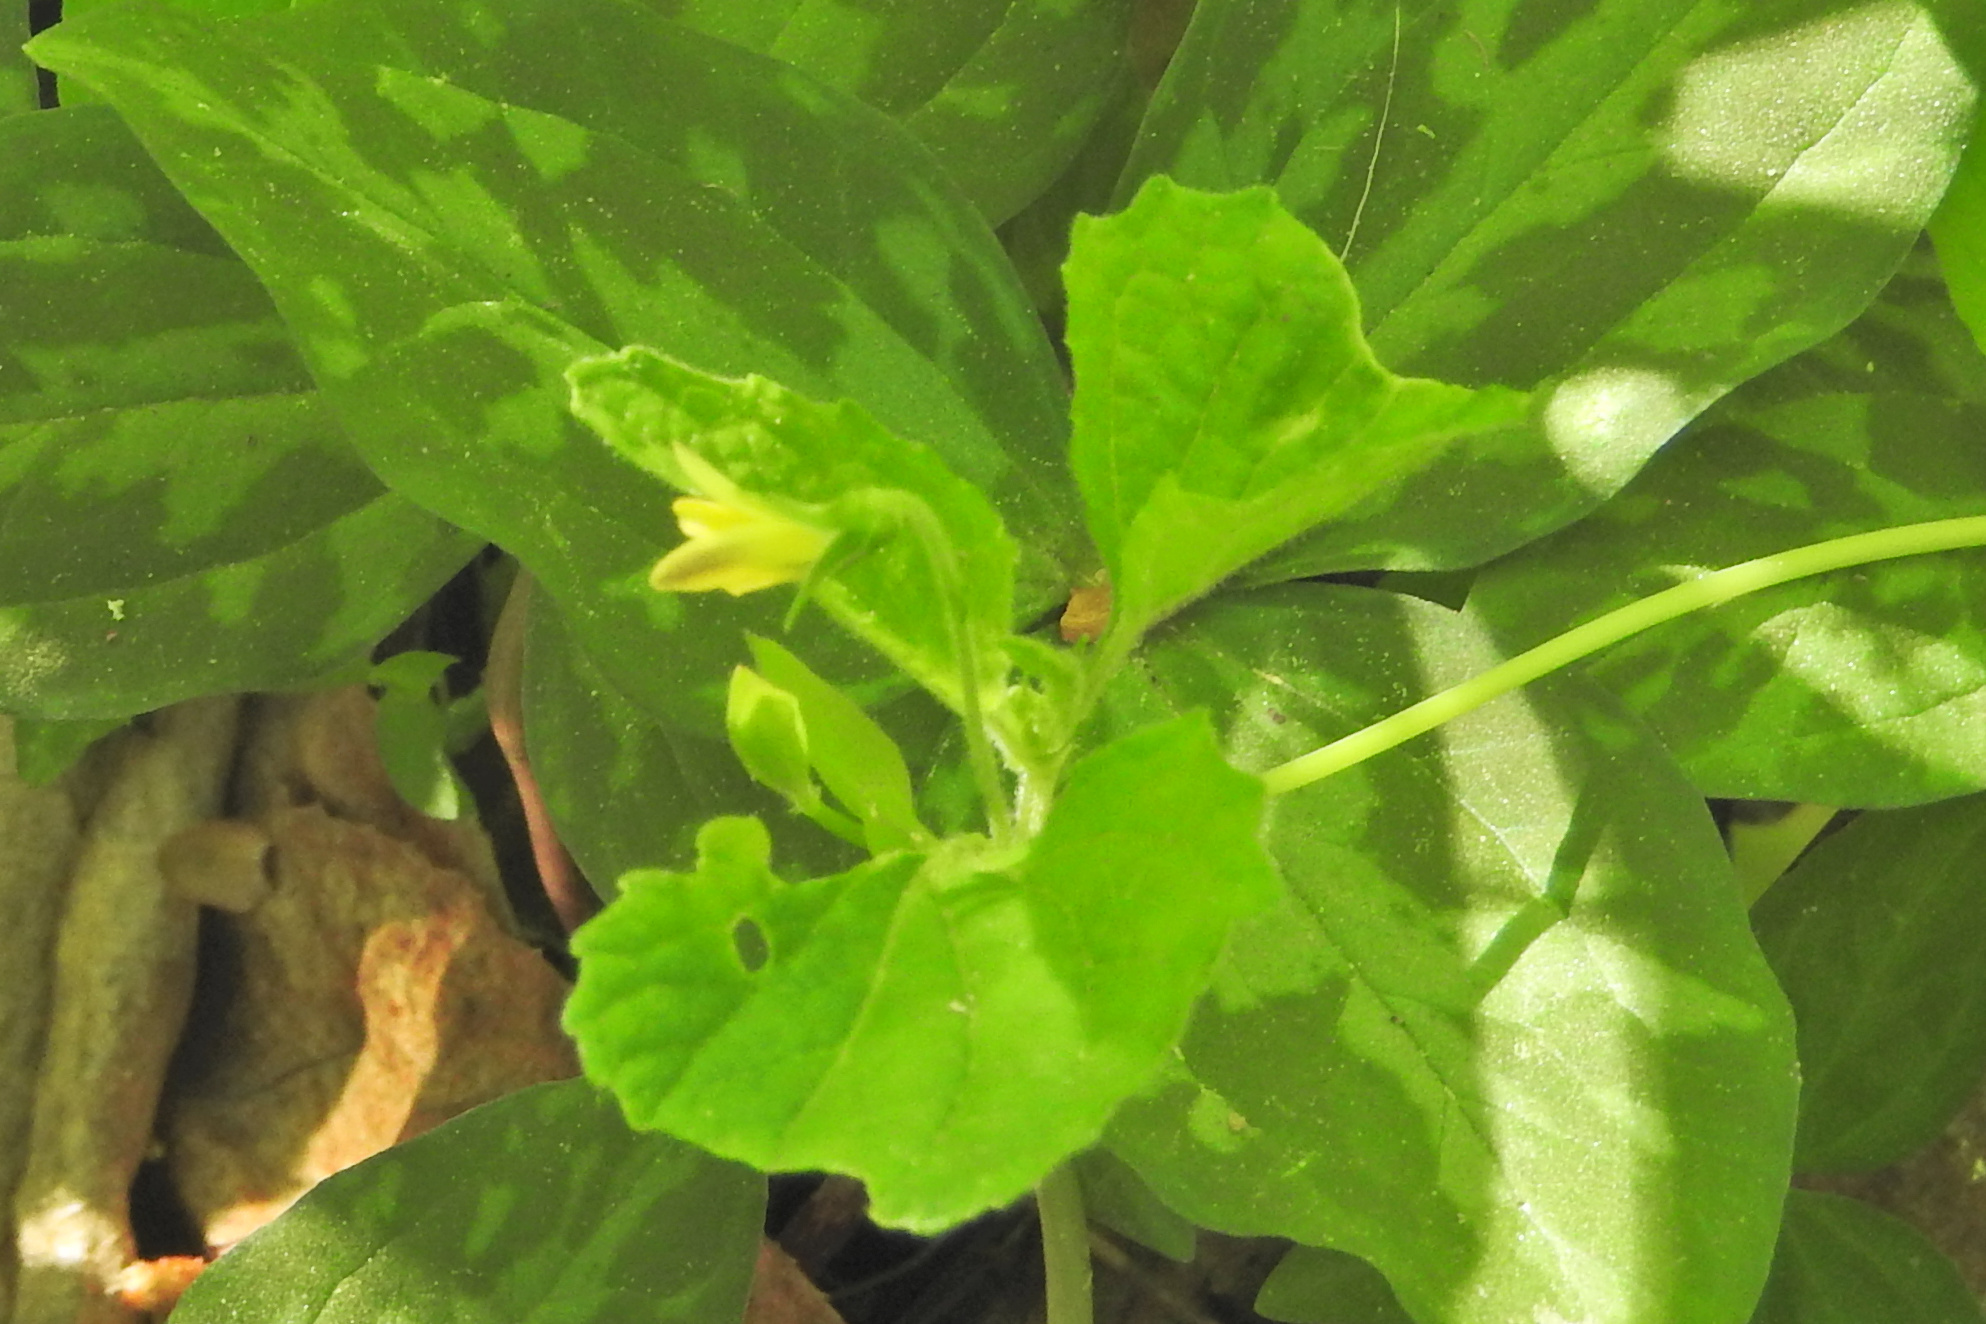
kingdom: Plantae
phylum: Tracheophyta
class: Magnoliopsida
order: Malpighiales
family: Violaceae
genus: Viola
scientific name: Viola eriocarpa
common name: Smooth yellow violet
